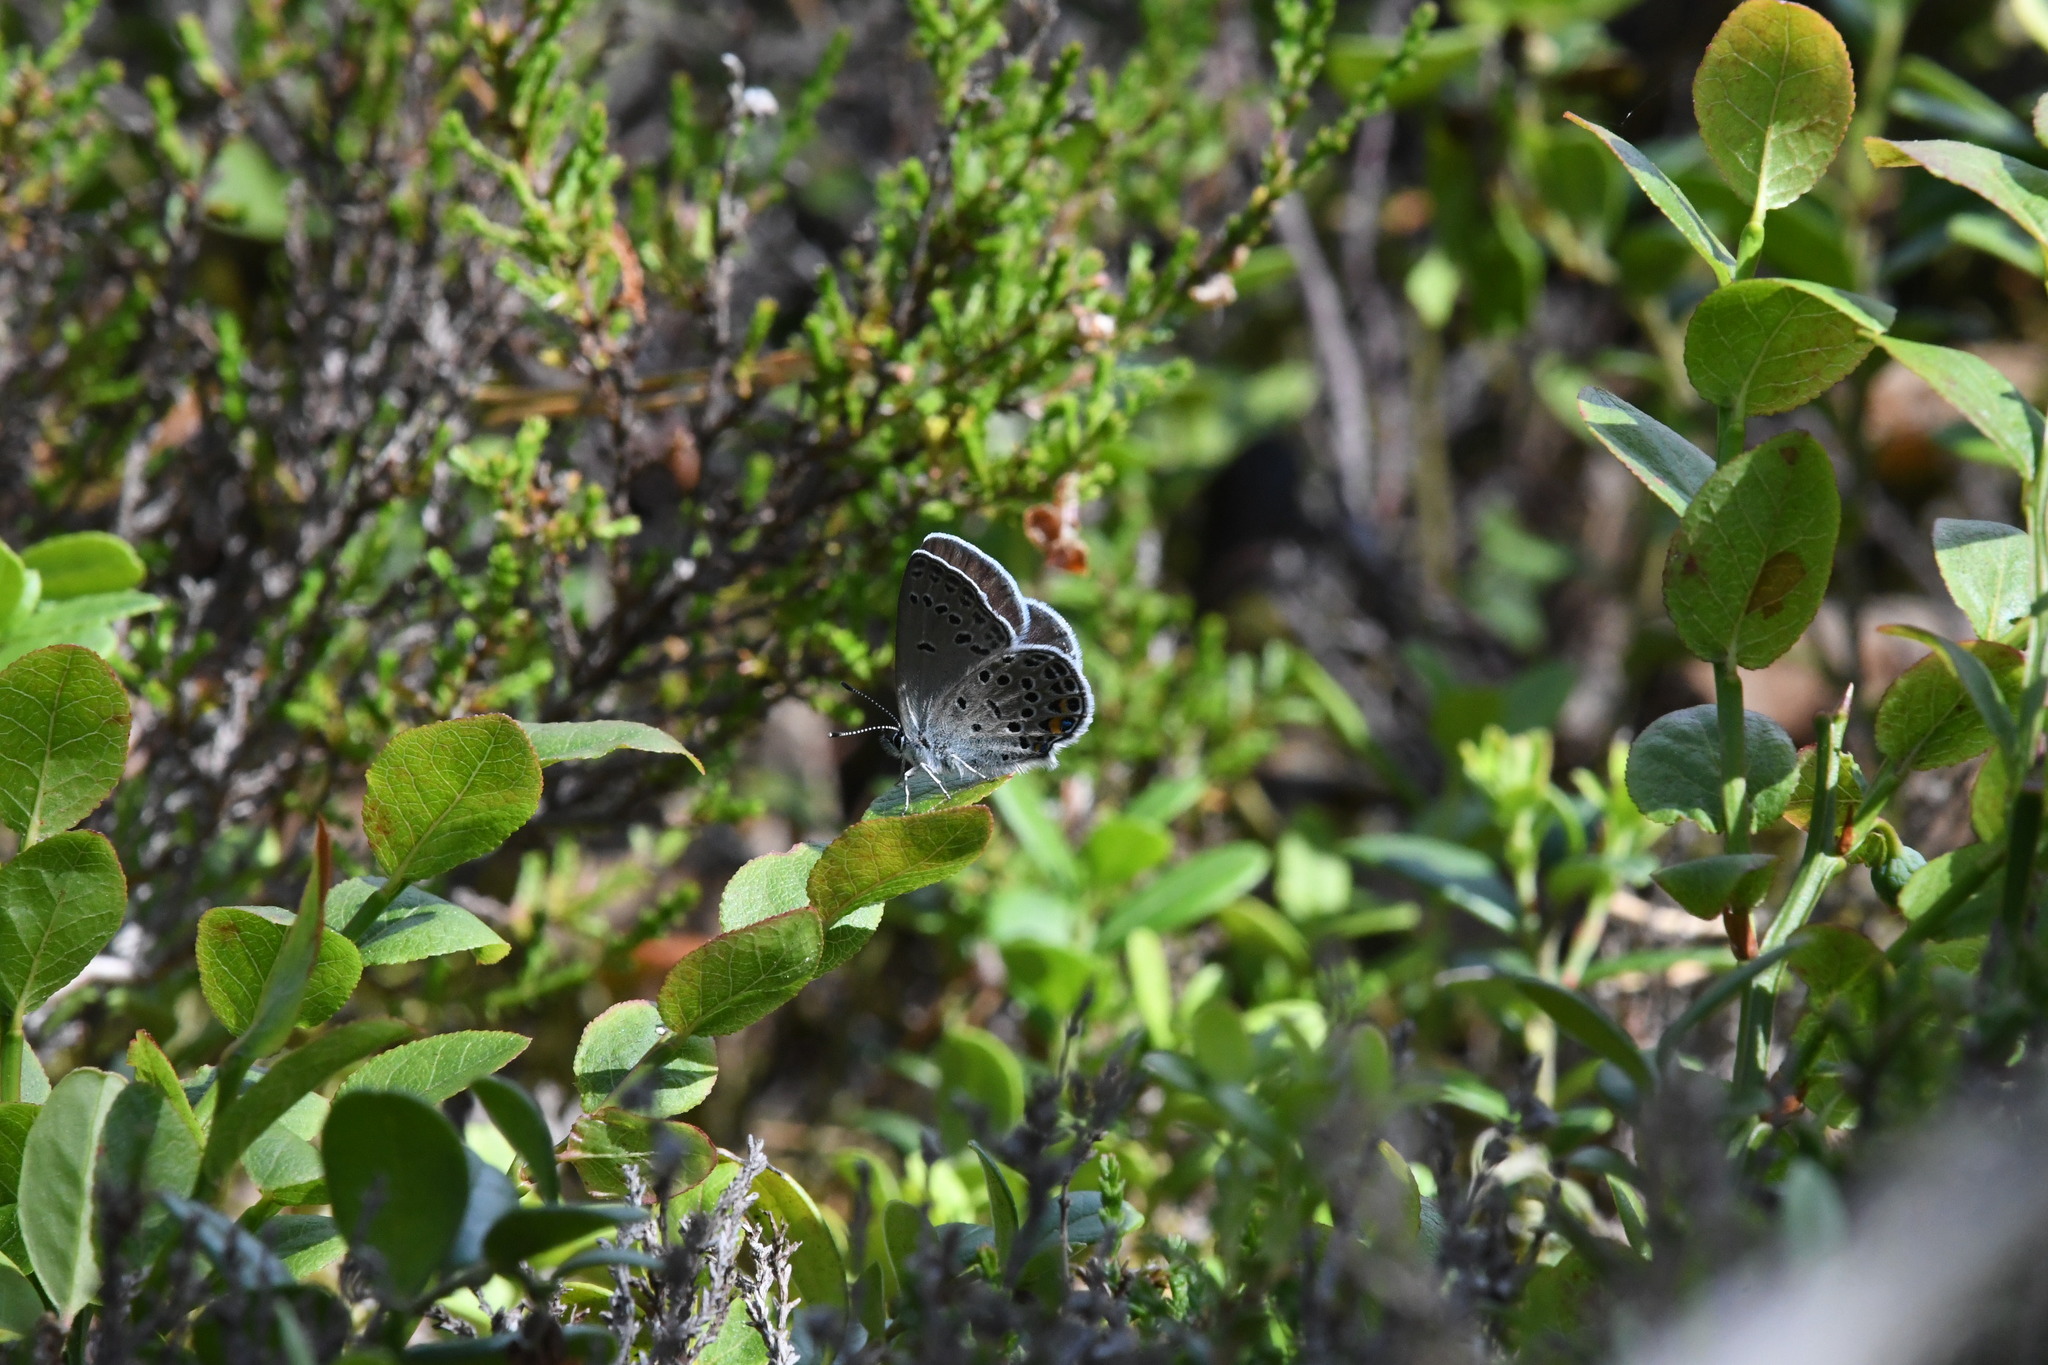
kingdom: Animalia
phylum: Arthropoda
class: Insecta
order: Lepidoptera
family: Lycaenidae
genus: Vacciniina
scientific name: Vacciniina optilete
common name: Cranberry blue
